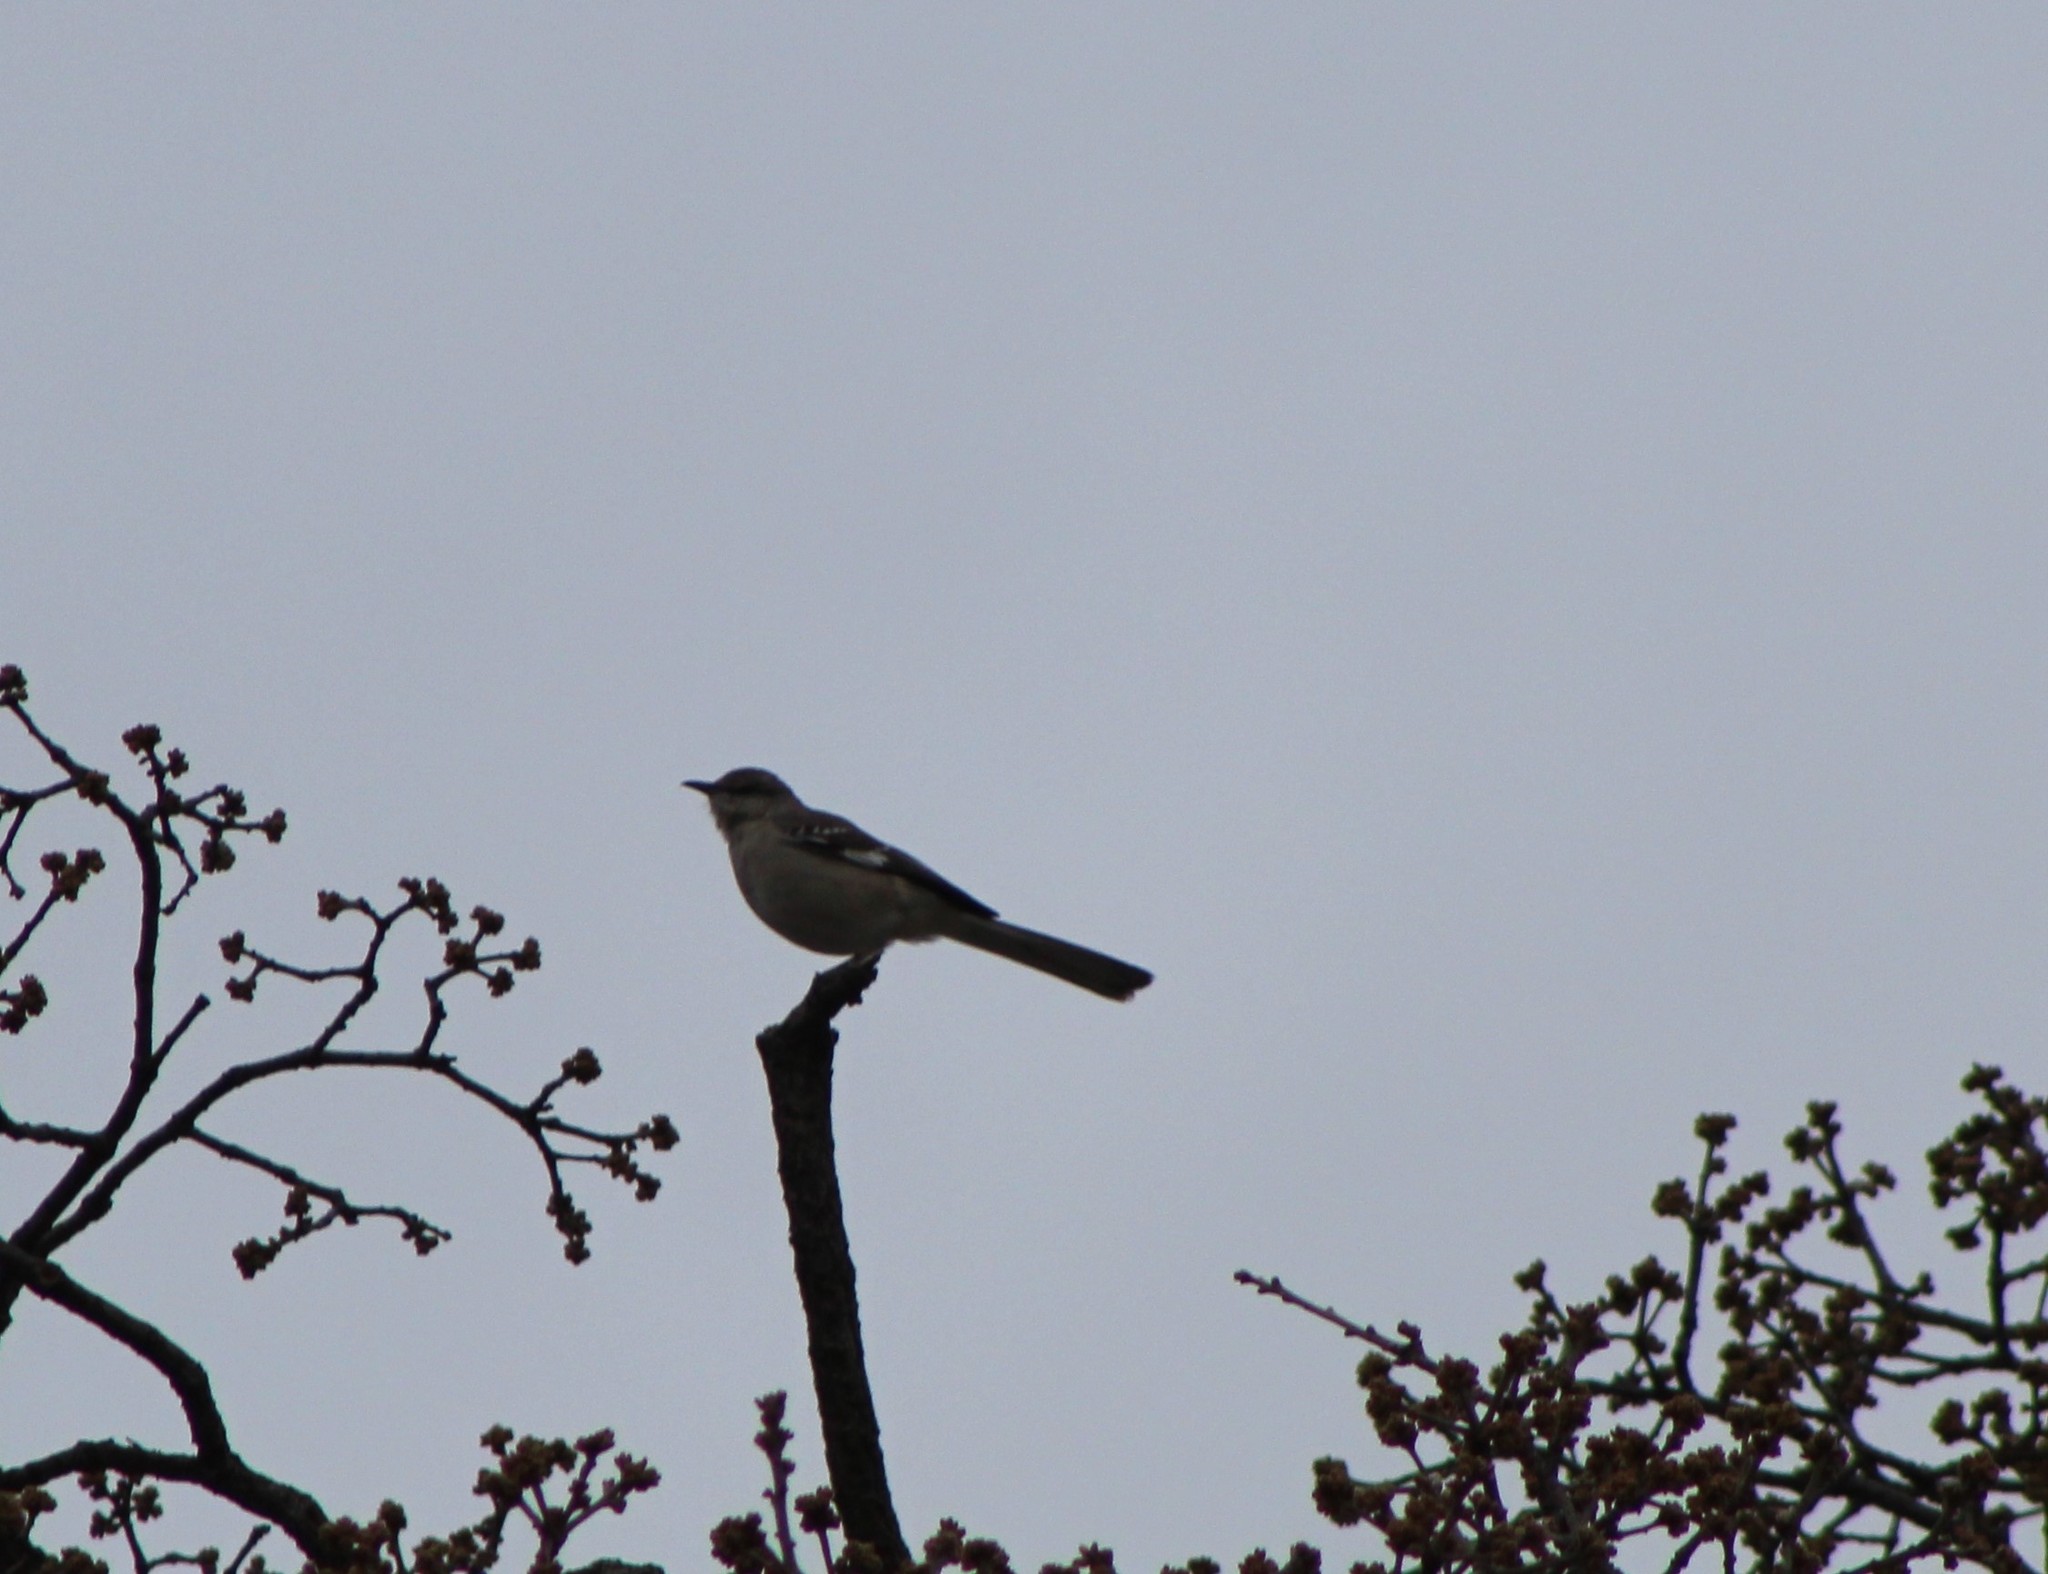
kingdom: Animalia
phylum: Chordata
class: Aves
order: Passeriformes
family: Mimidae
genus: Mimus
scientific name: Mimus polyglottos
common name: Northern mockingbird
